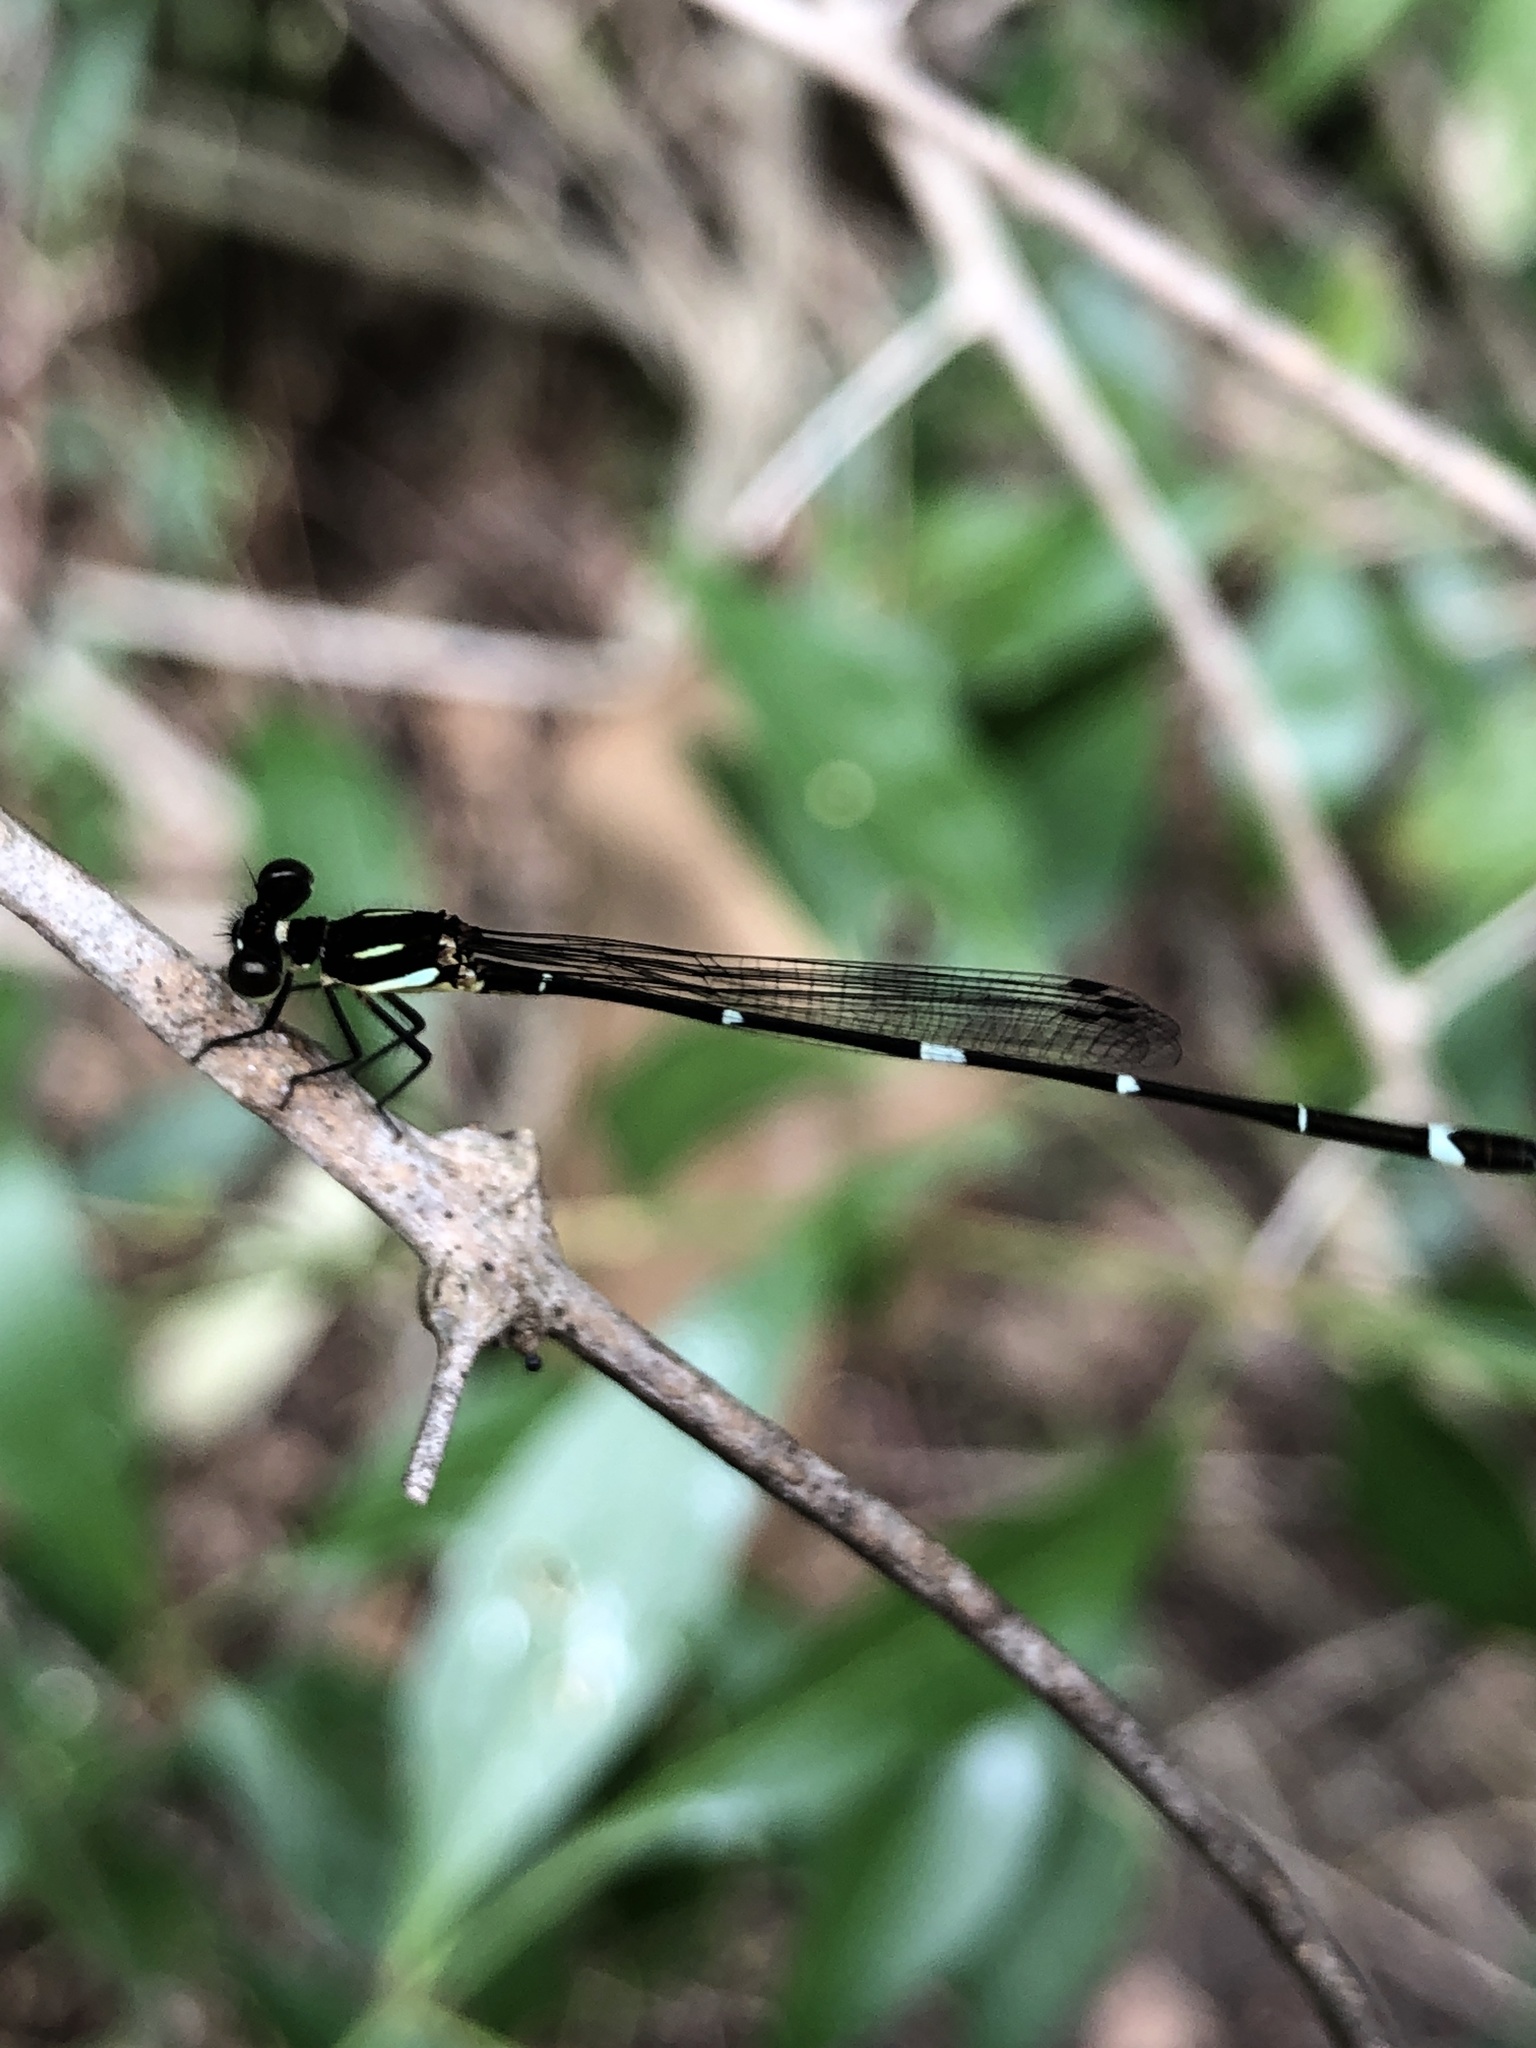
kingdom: Animalia
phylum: Arthropoda
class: Insecta
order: Odonata
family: Platycnemididae
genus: Nososticta
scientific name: Nososticta solitaria
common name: Fivespot threadtail
